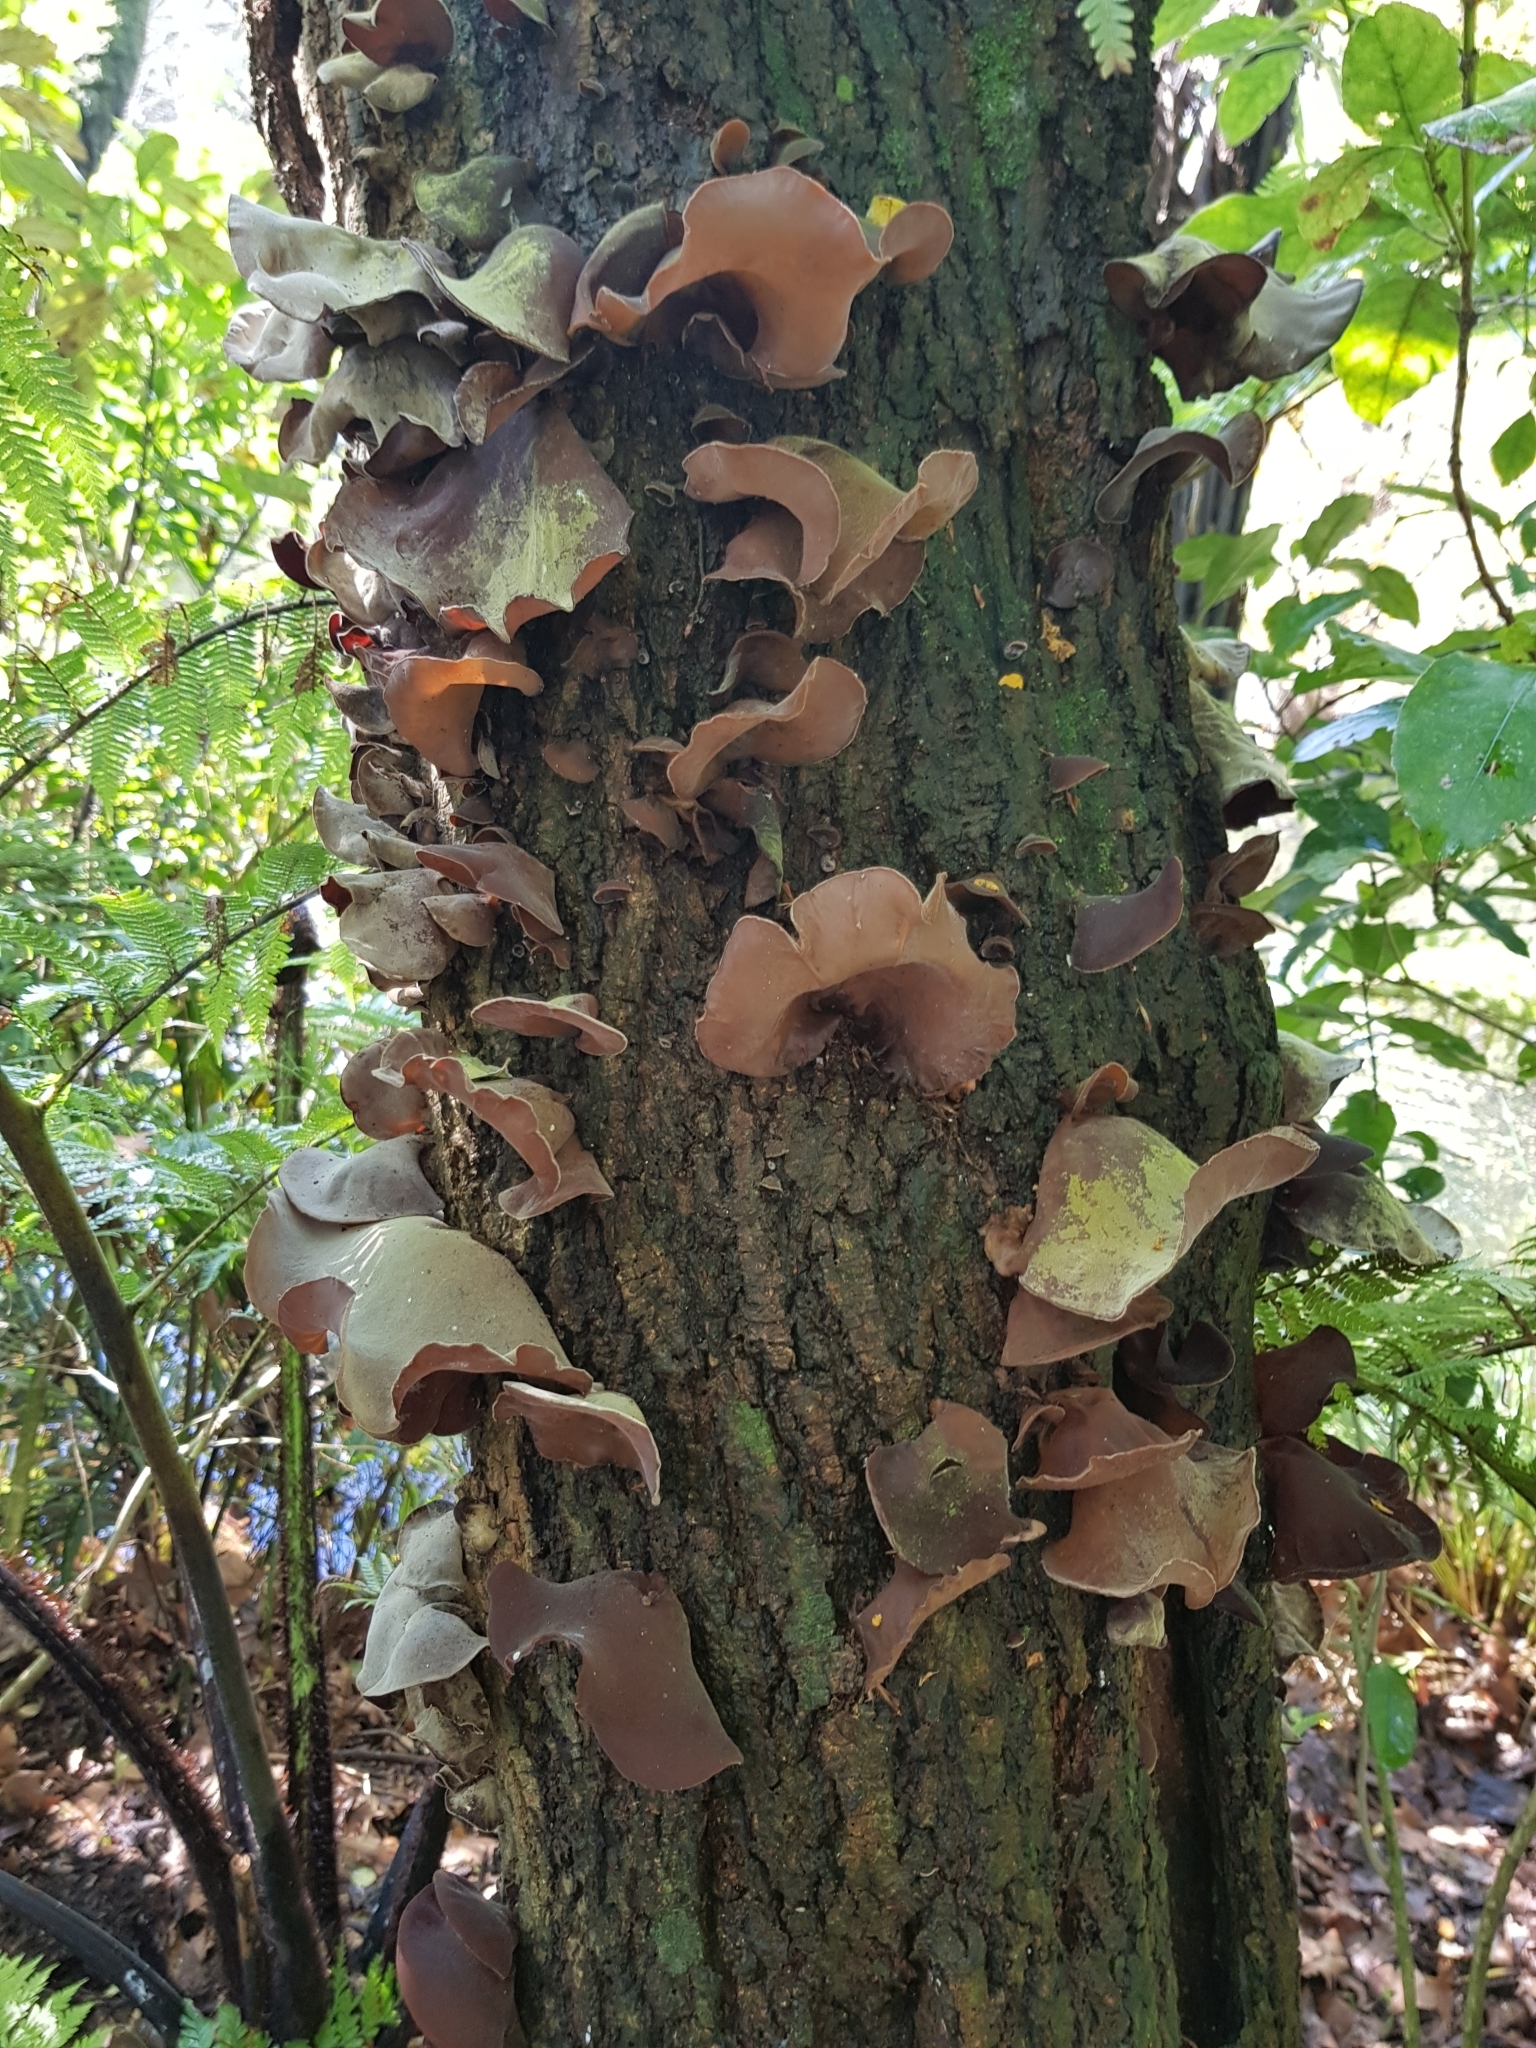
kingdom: Fungi
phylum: Basidiomycota
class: Agaricomycetes
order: Auriculariales
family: Auriculariaceae
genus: Auricularia
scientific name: Auricularia cornea
